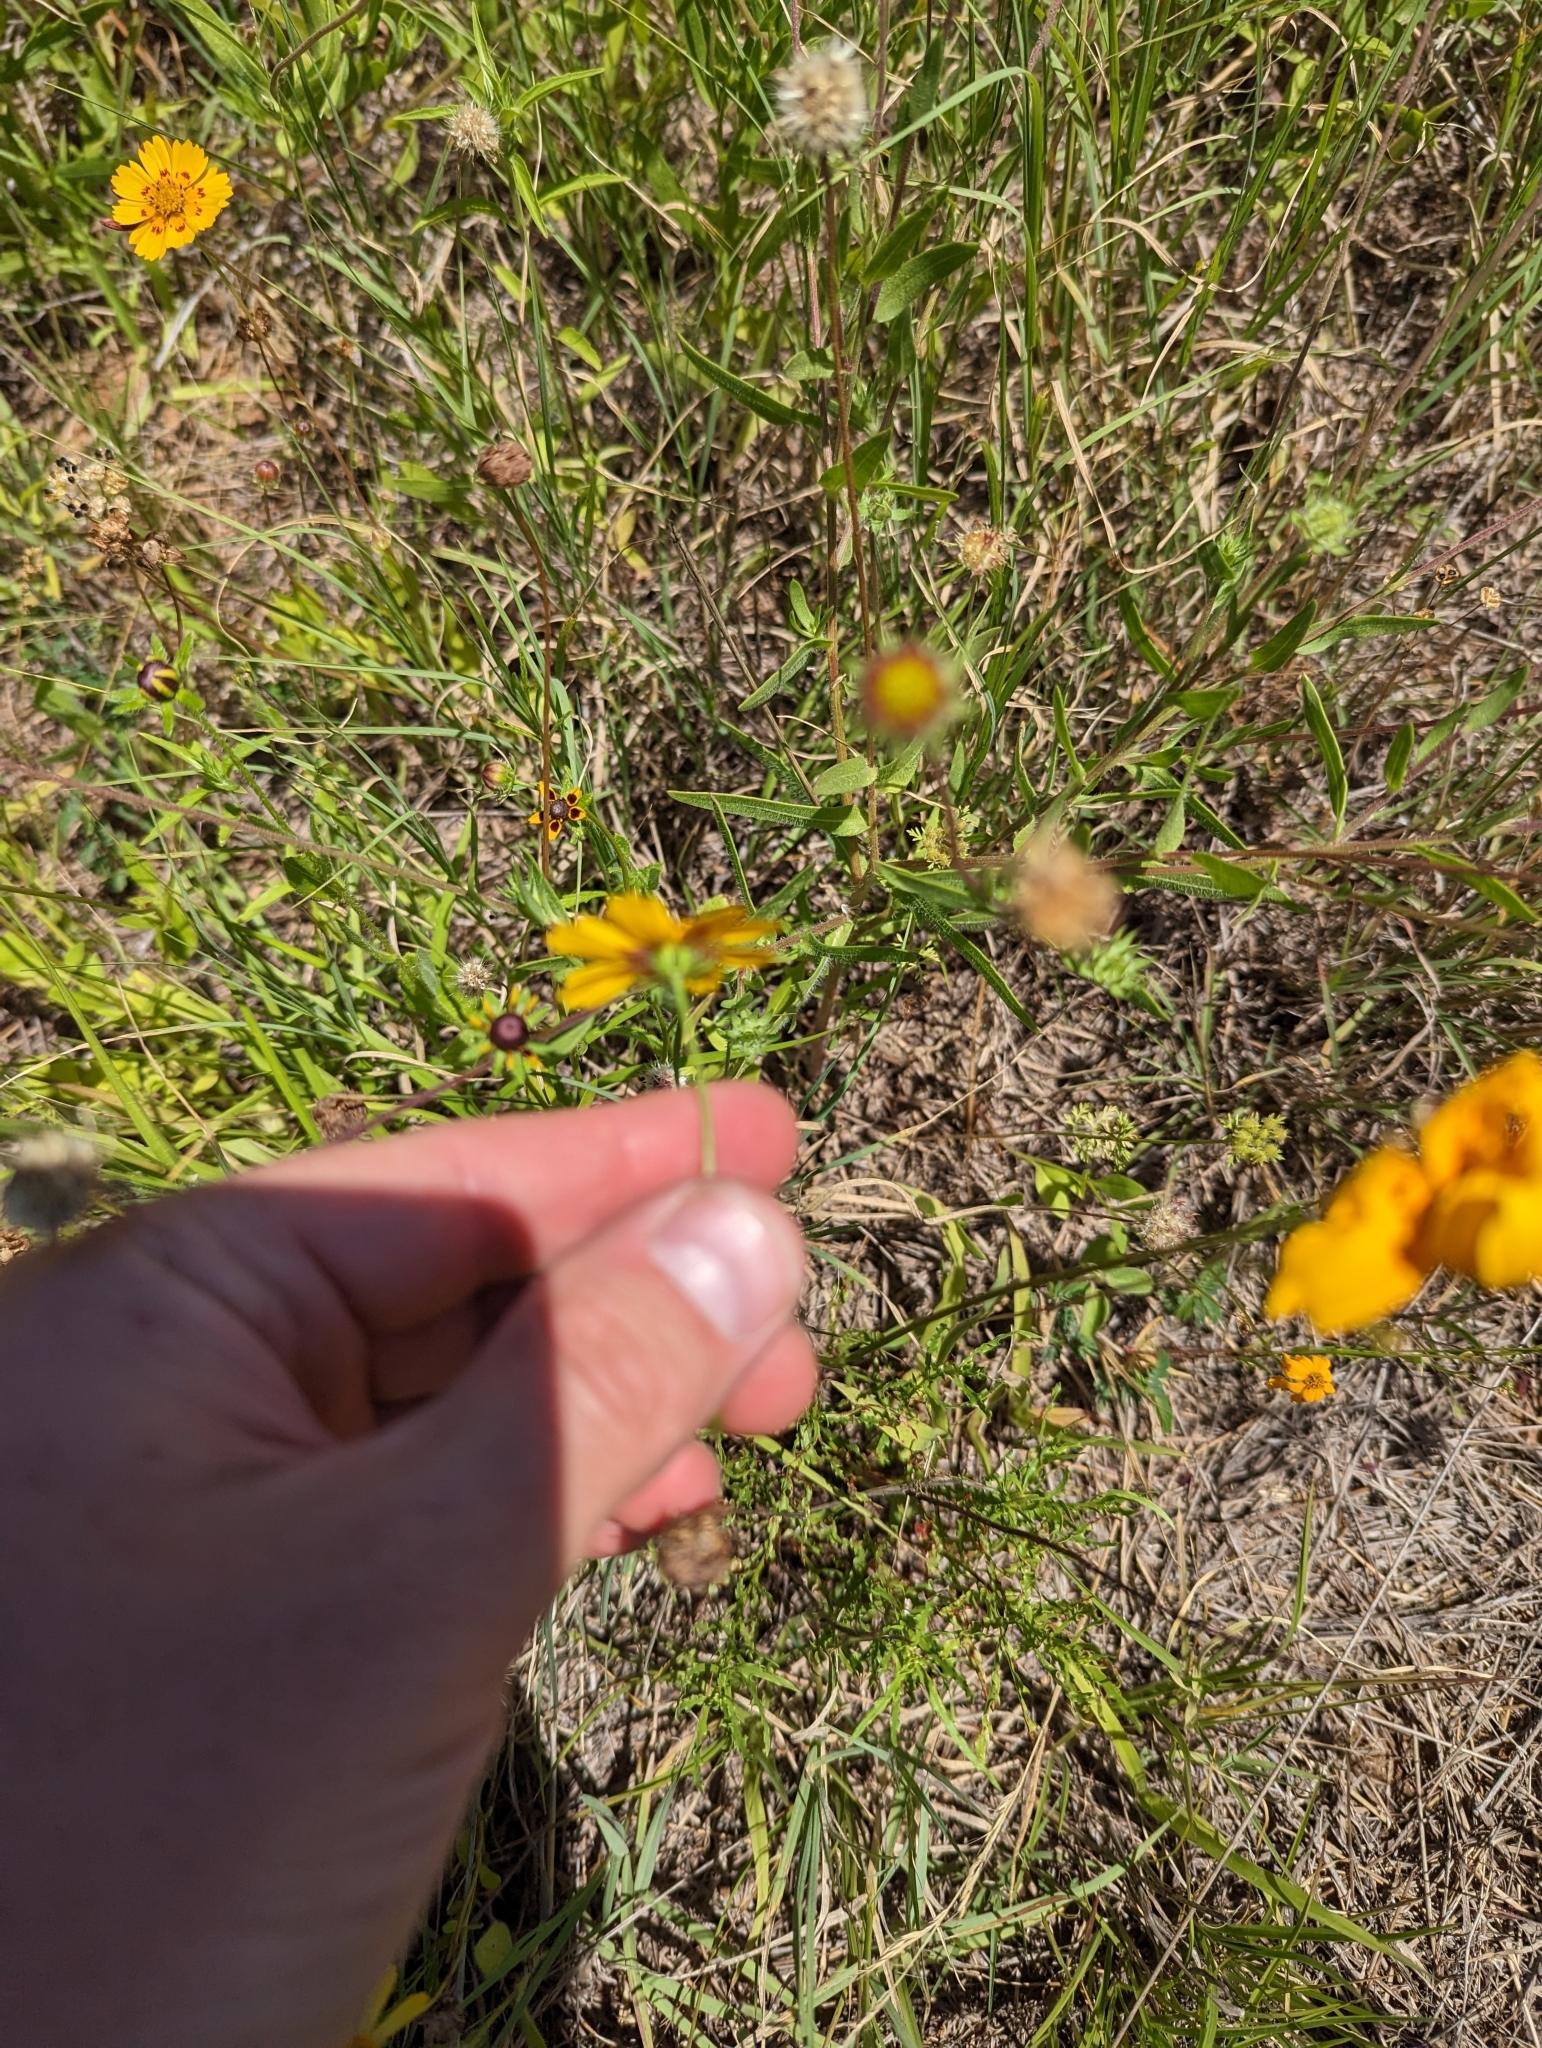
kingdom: Plantae
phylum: Tracheophyta
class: Magnoliopsida
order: Asterales
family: Asteraceae
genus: Coreopsis
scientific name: Coreopsis nuecensis
